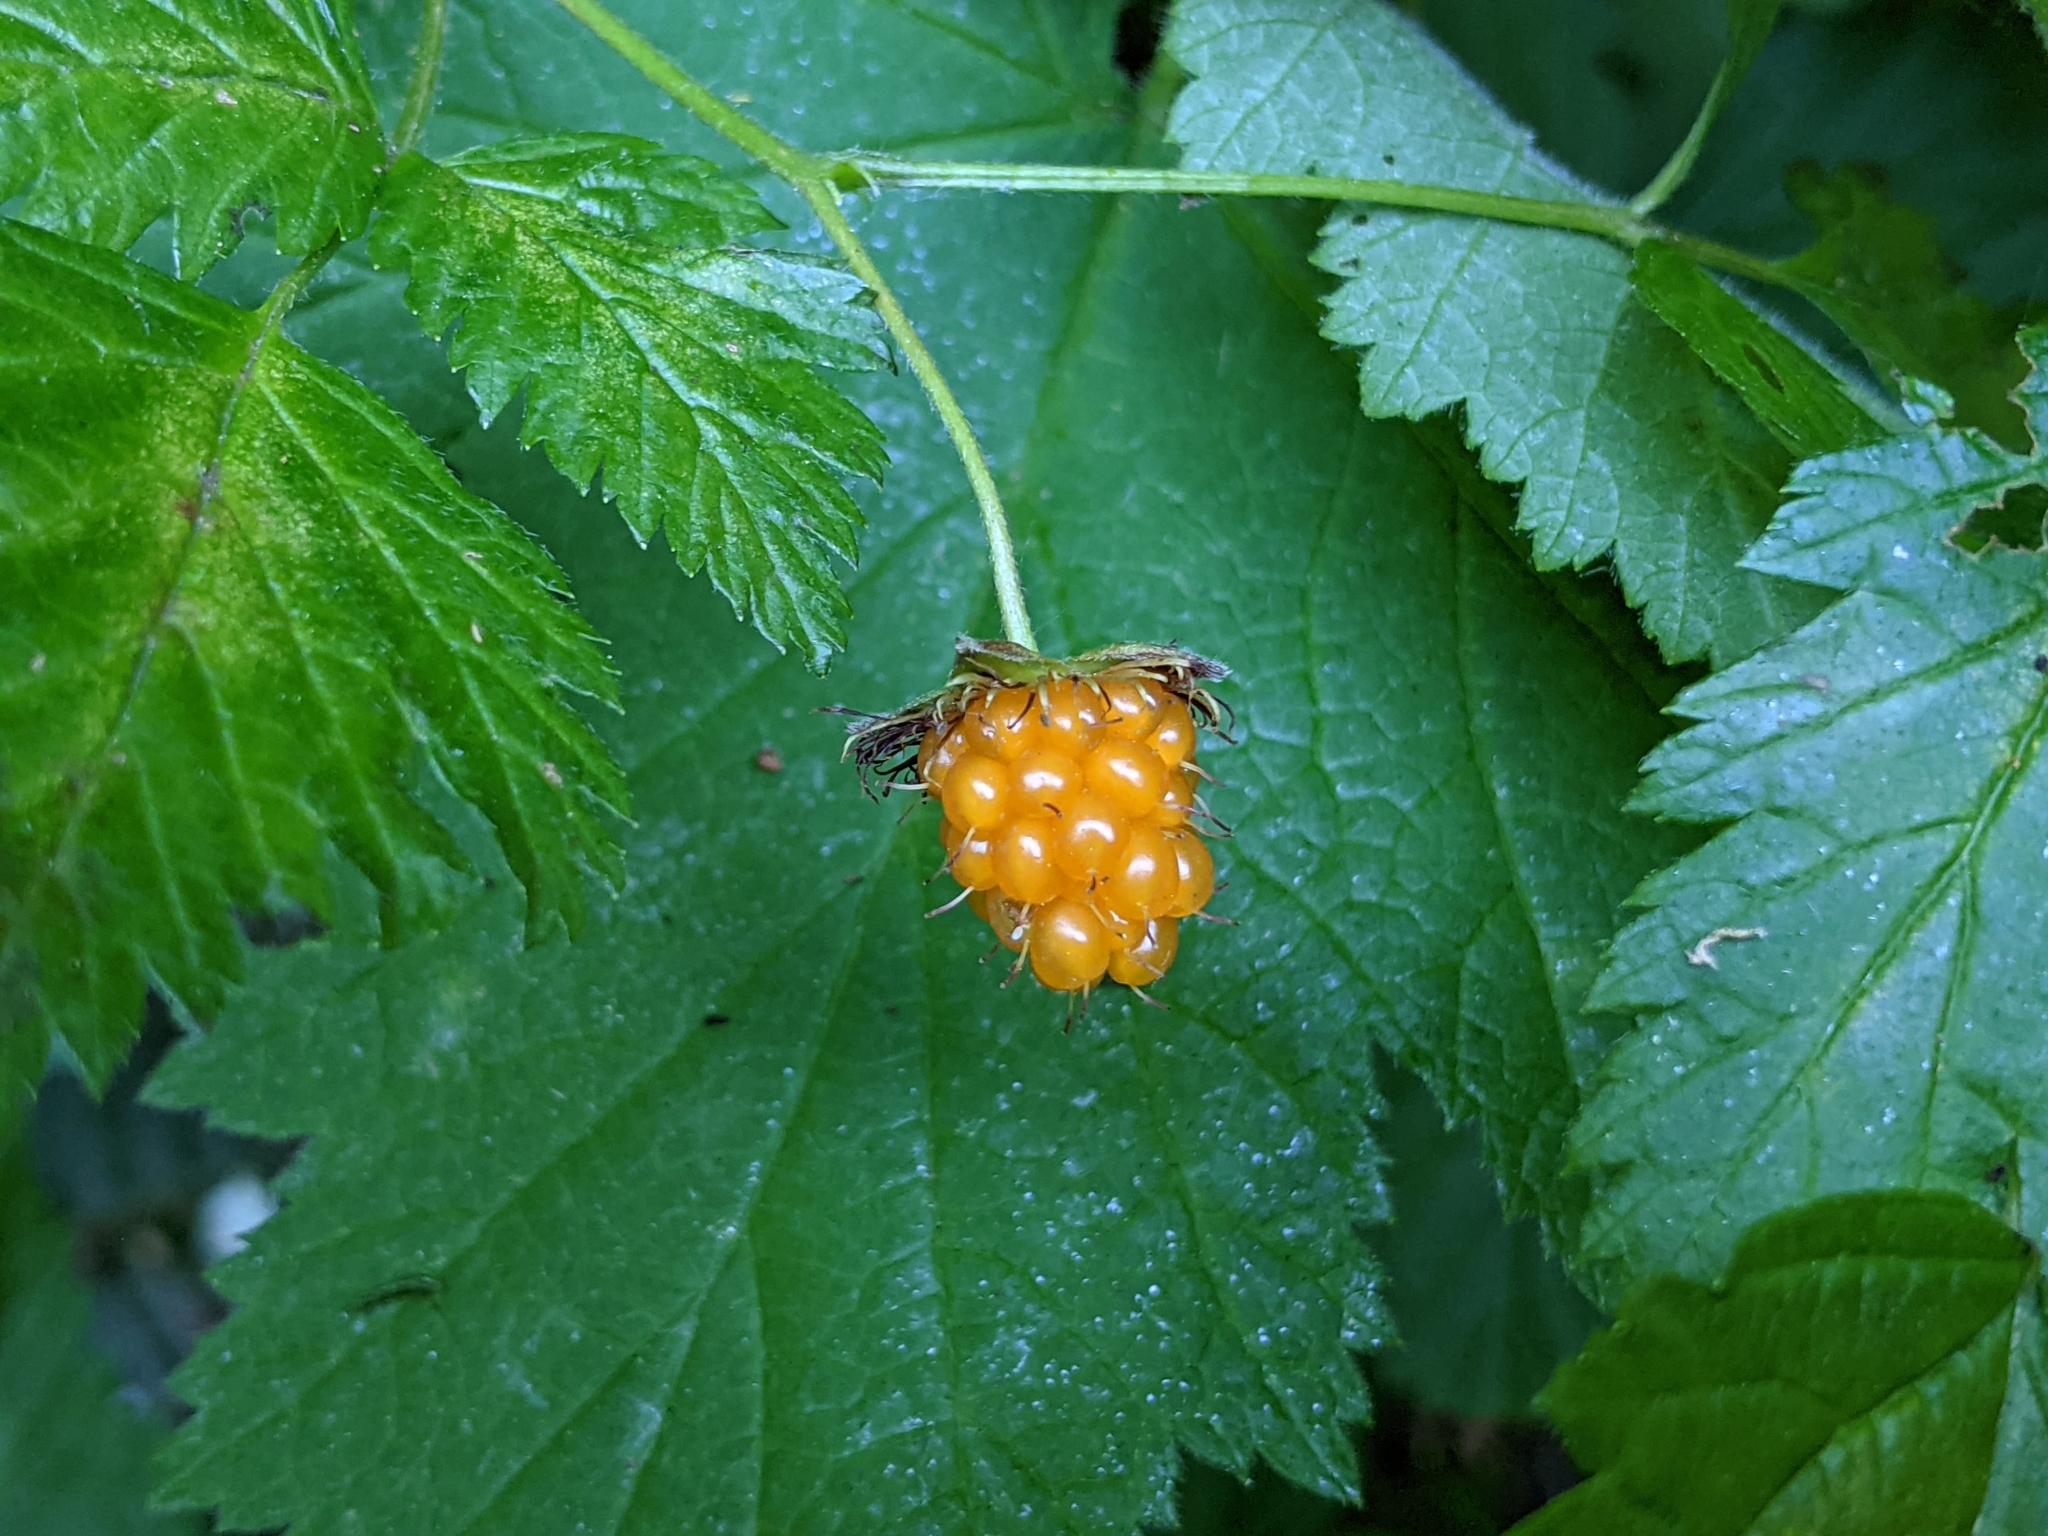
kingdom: Plantae
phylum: Tracheophyta
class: Magnoliopsida
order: Rosales
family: Rosaceae
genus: Rubus
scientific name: Rubus spectabilis
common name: Salmonberry
